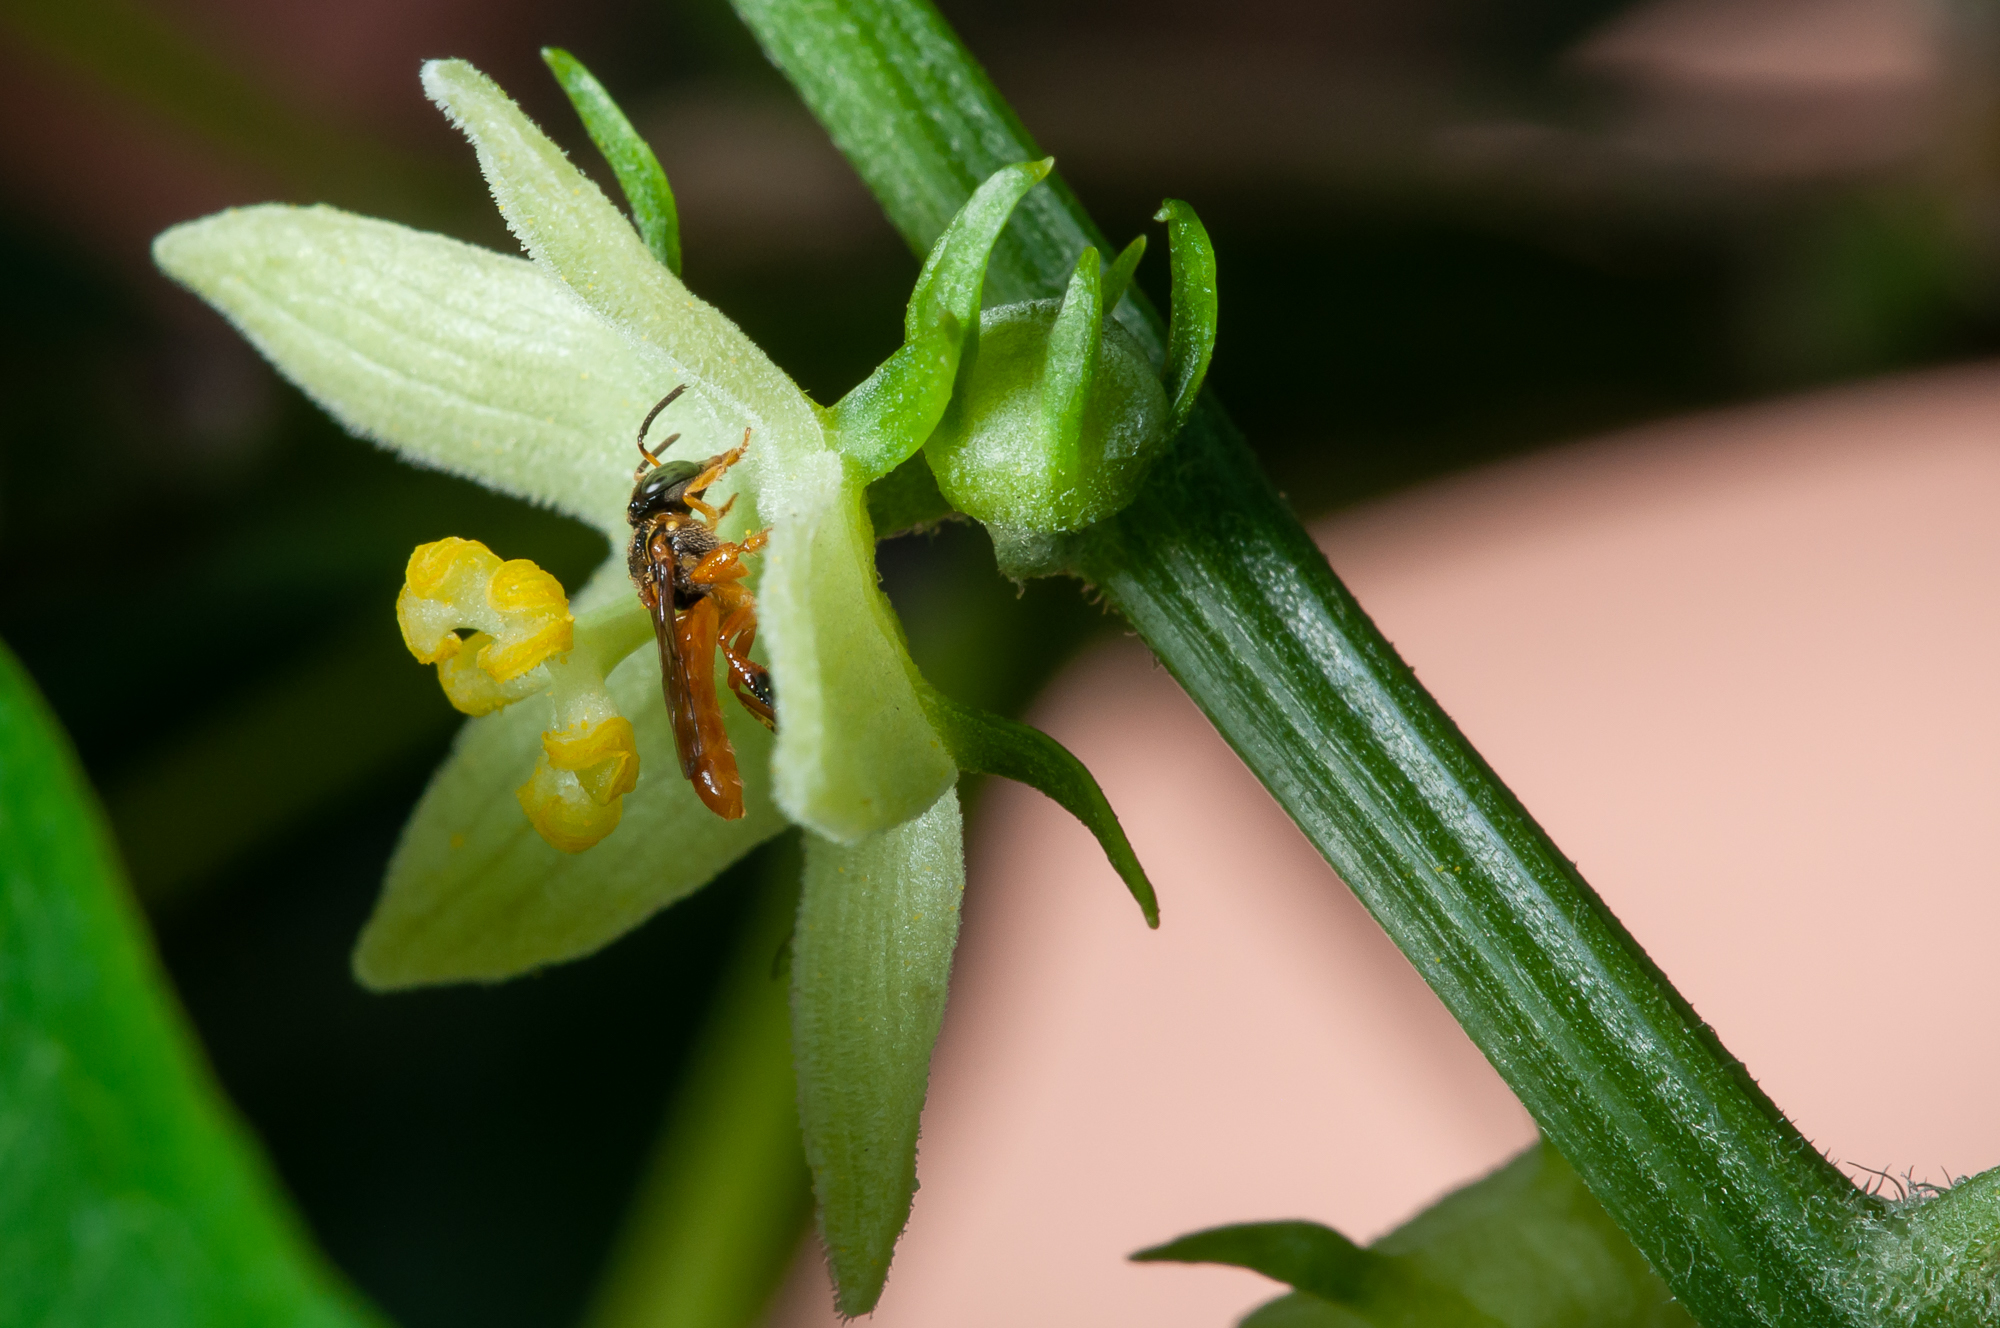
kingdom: Animalia
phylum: Arthropoda
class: Insecta
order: Hymenoptera
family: Apidae
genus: Tetragonisca
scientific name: Tetragonisca angustula
